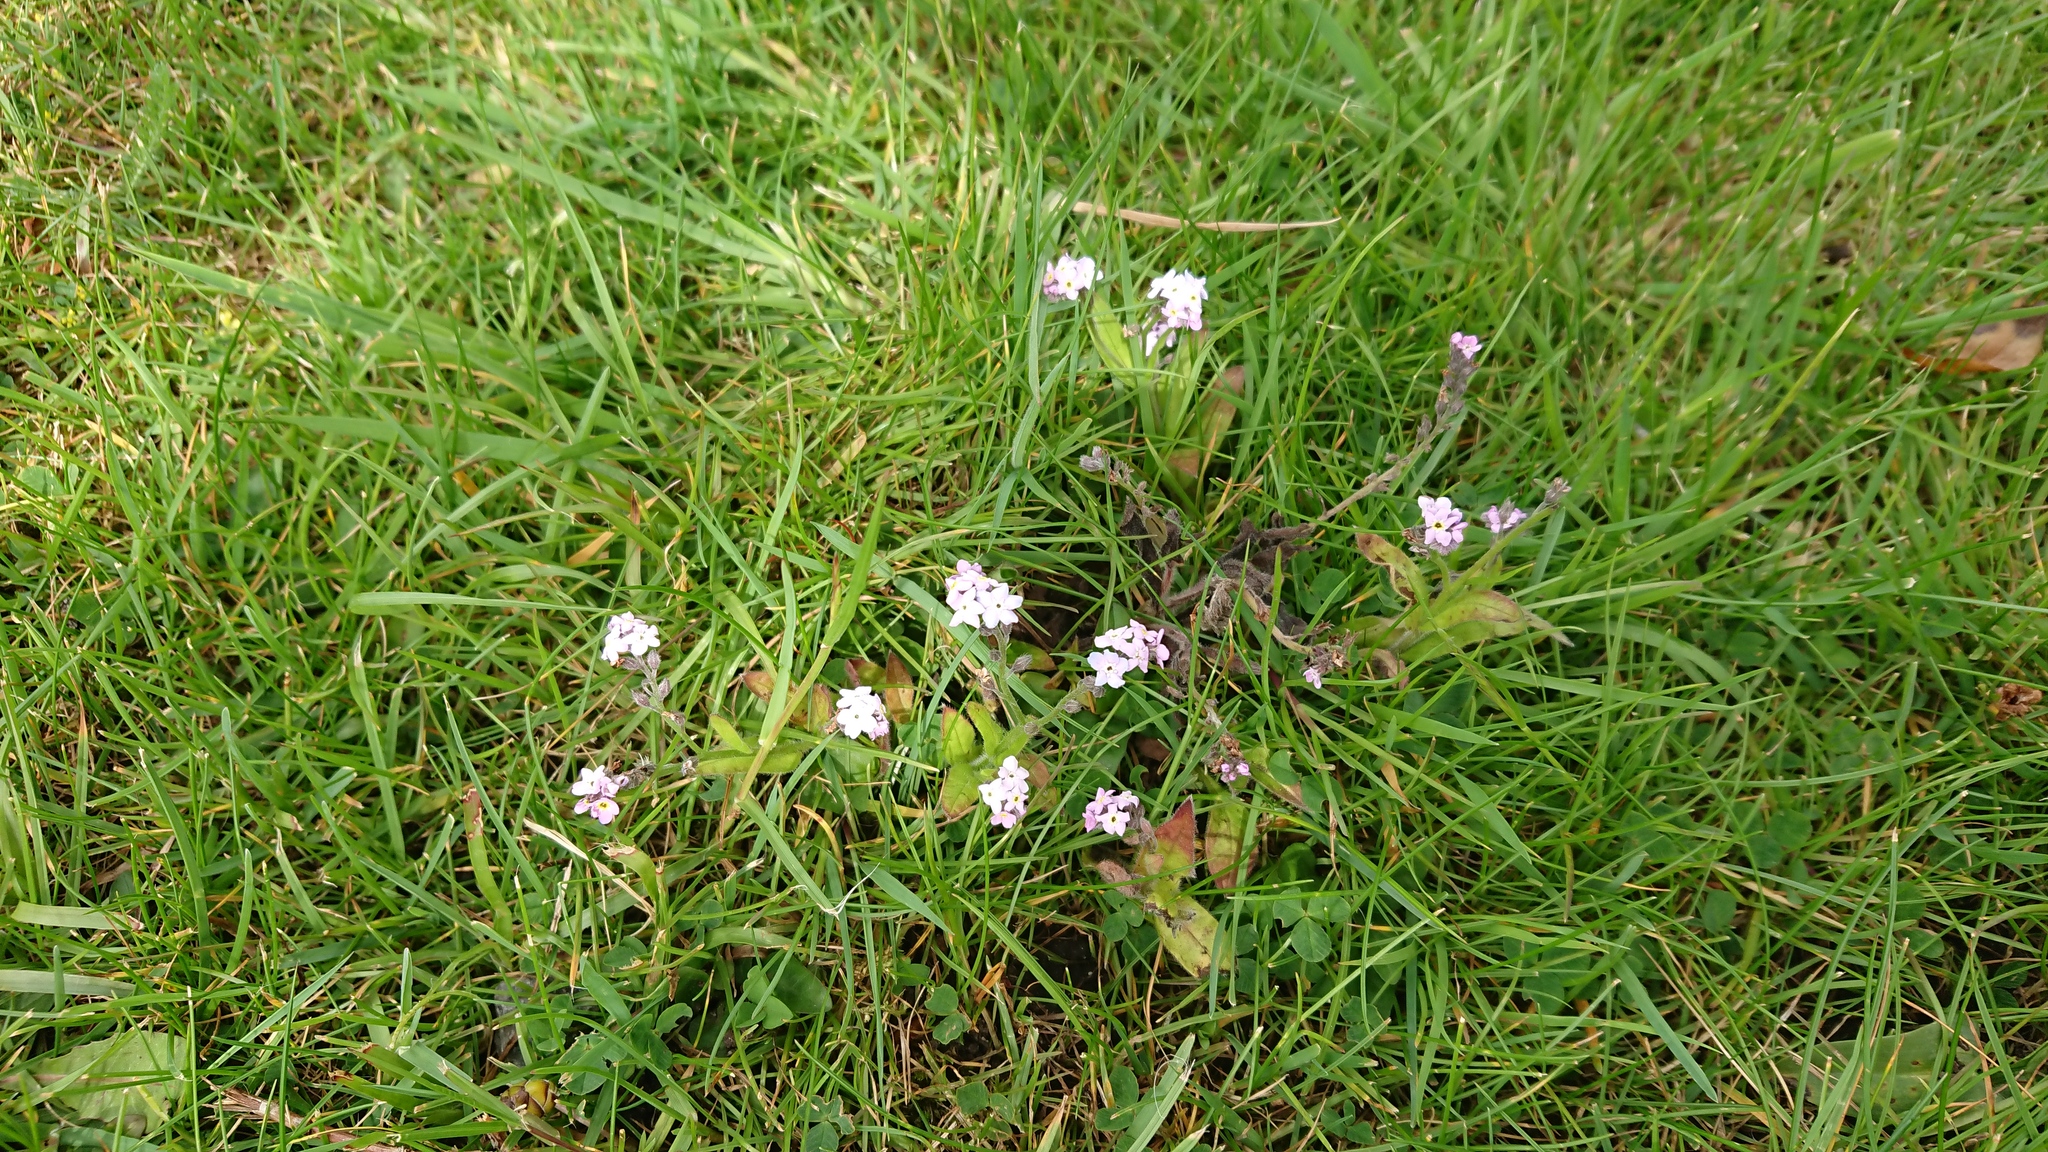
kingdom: Plantae
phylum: Tracheophyta
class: Magnoliopsida
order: Boraginales
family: Boraginaceae
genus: Myosotis
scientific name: Myosotis sylvatica
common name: Wood forget-me-not
